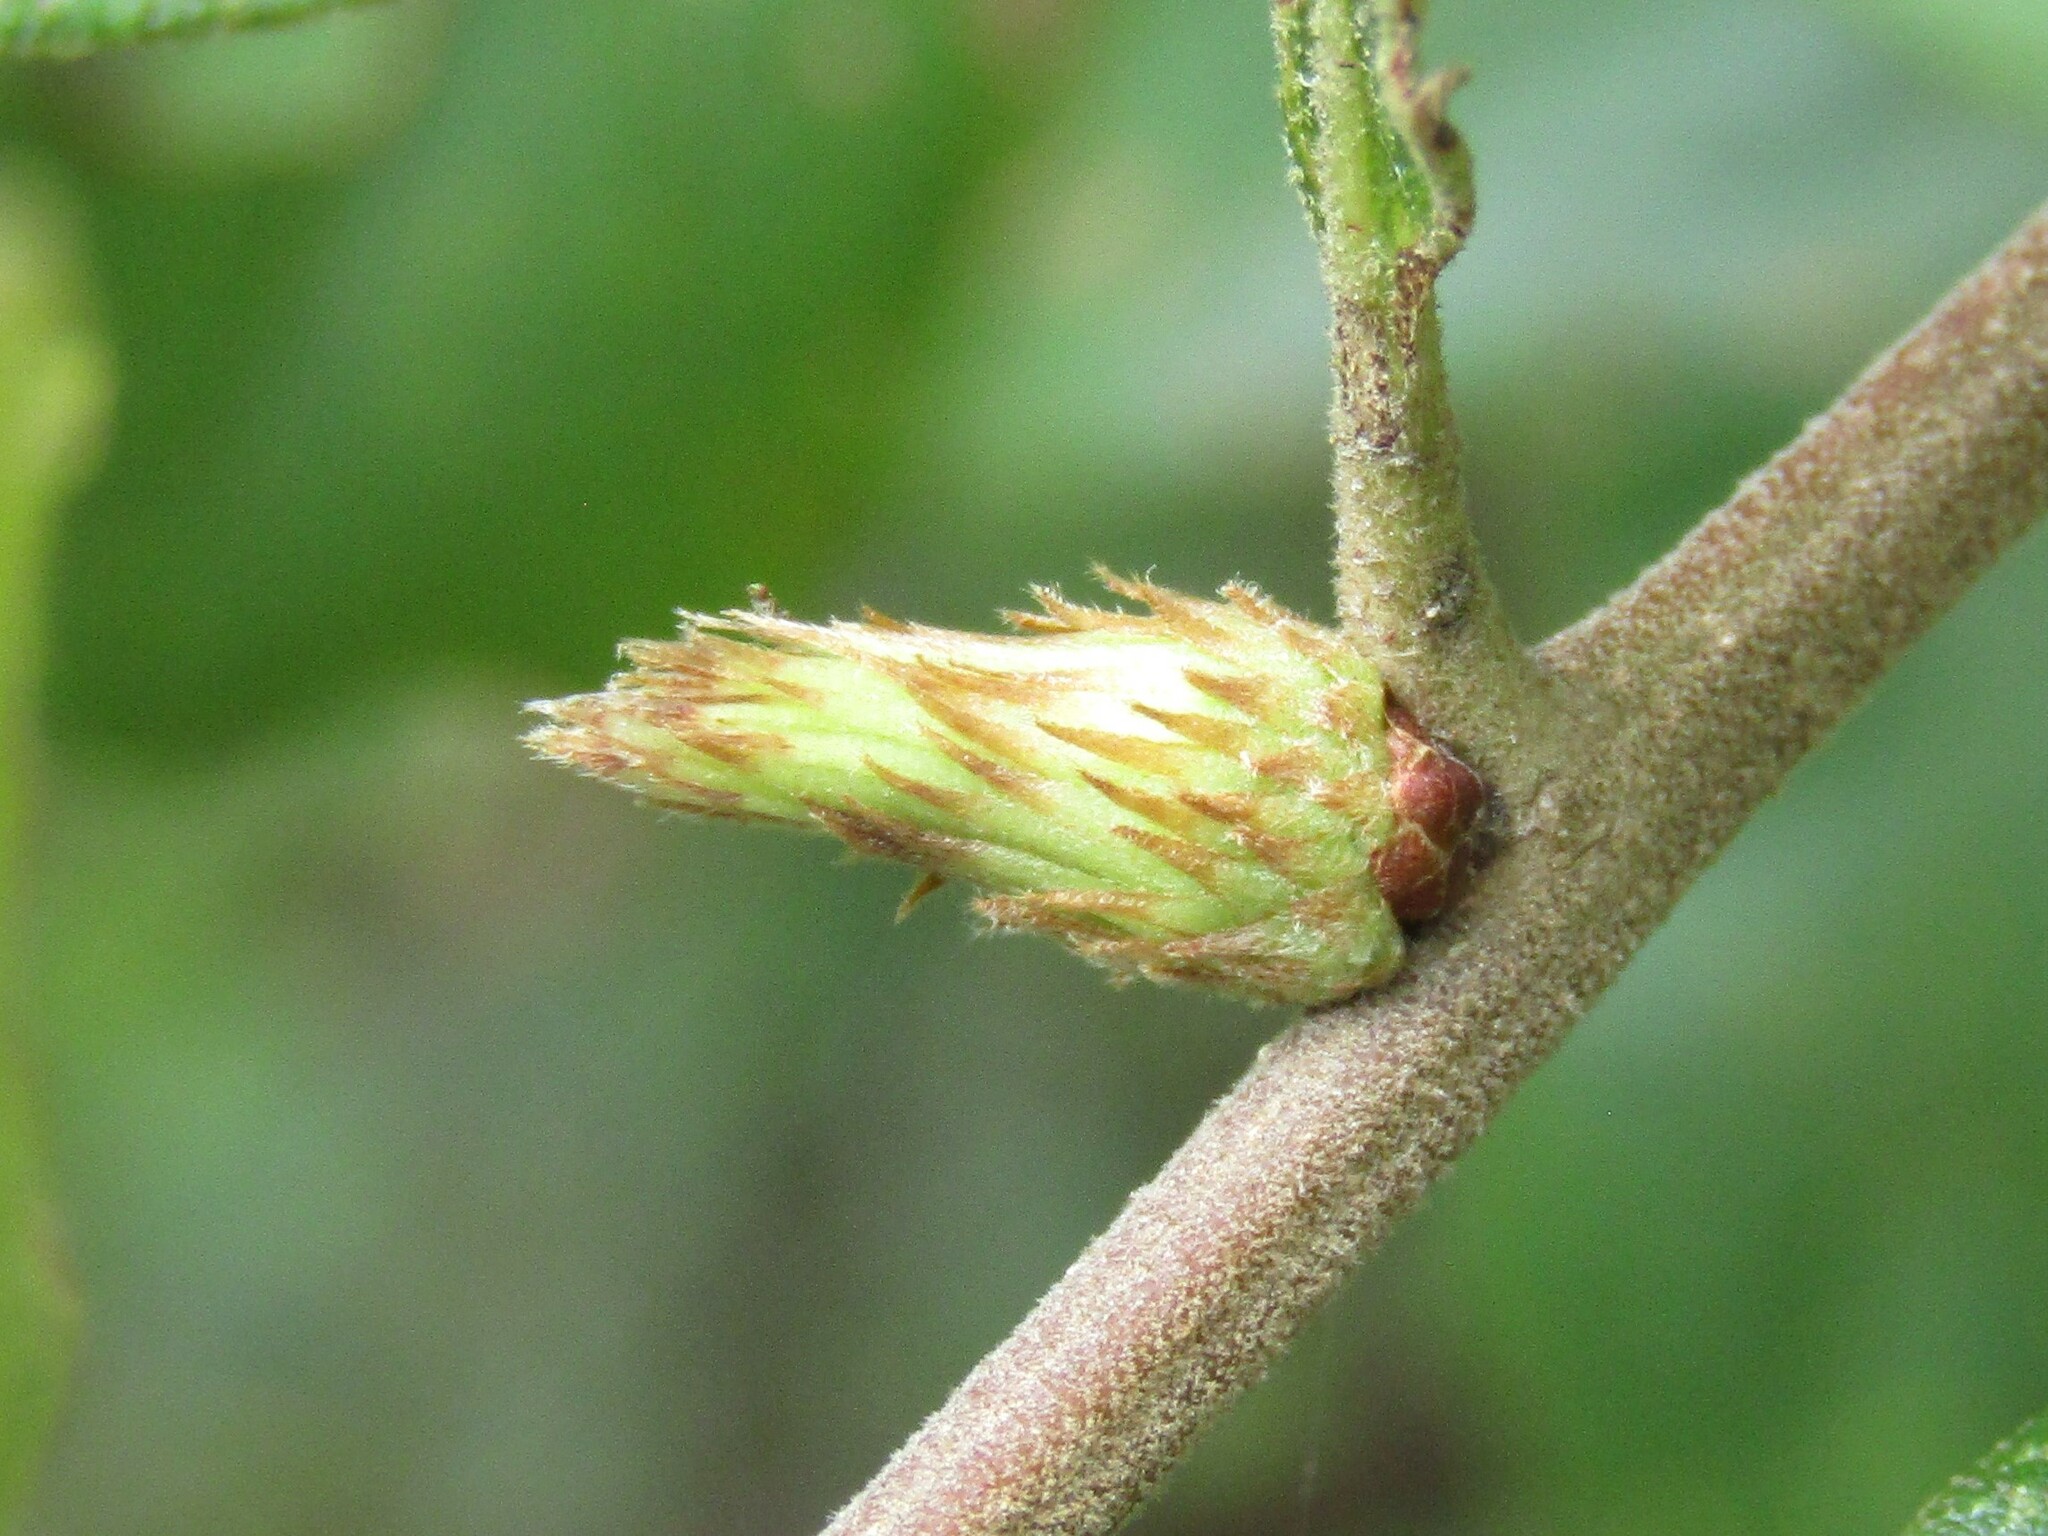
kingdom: Animalia
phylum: Arthropoda
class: Insecta
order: Hymenoptera
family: Cynipidae
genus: Andricus
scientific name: Andricus
